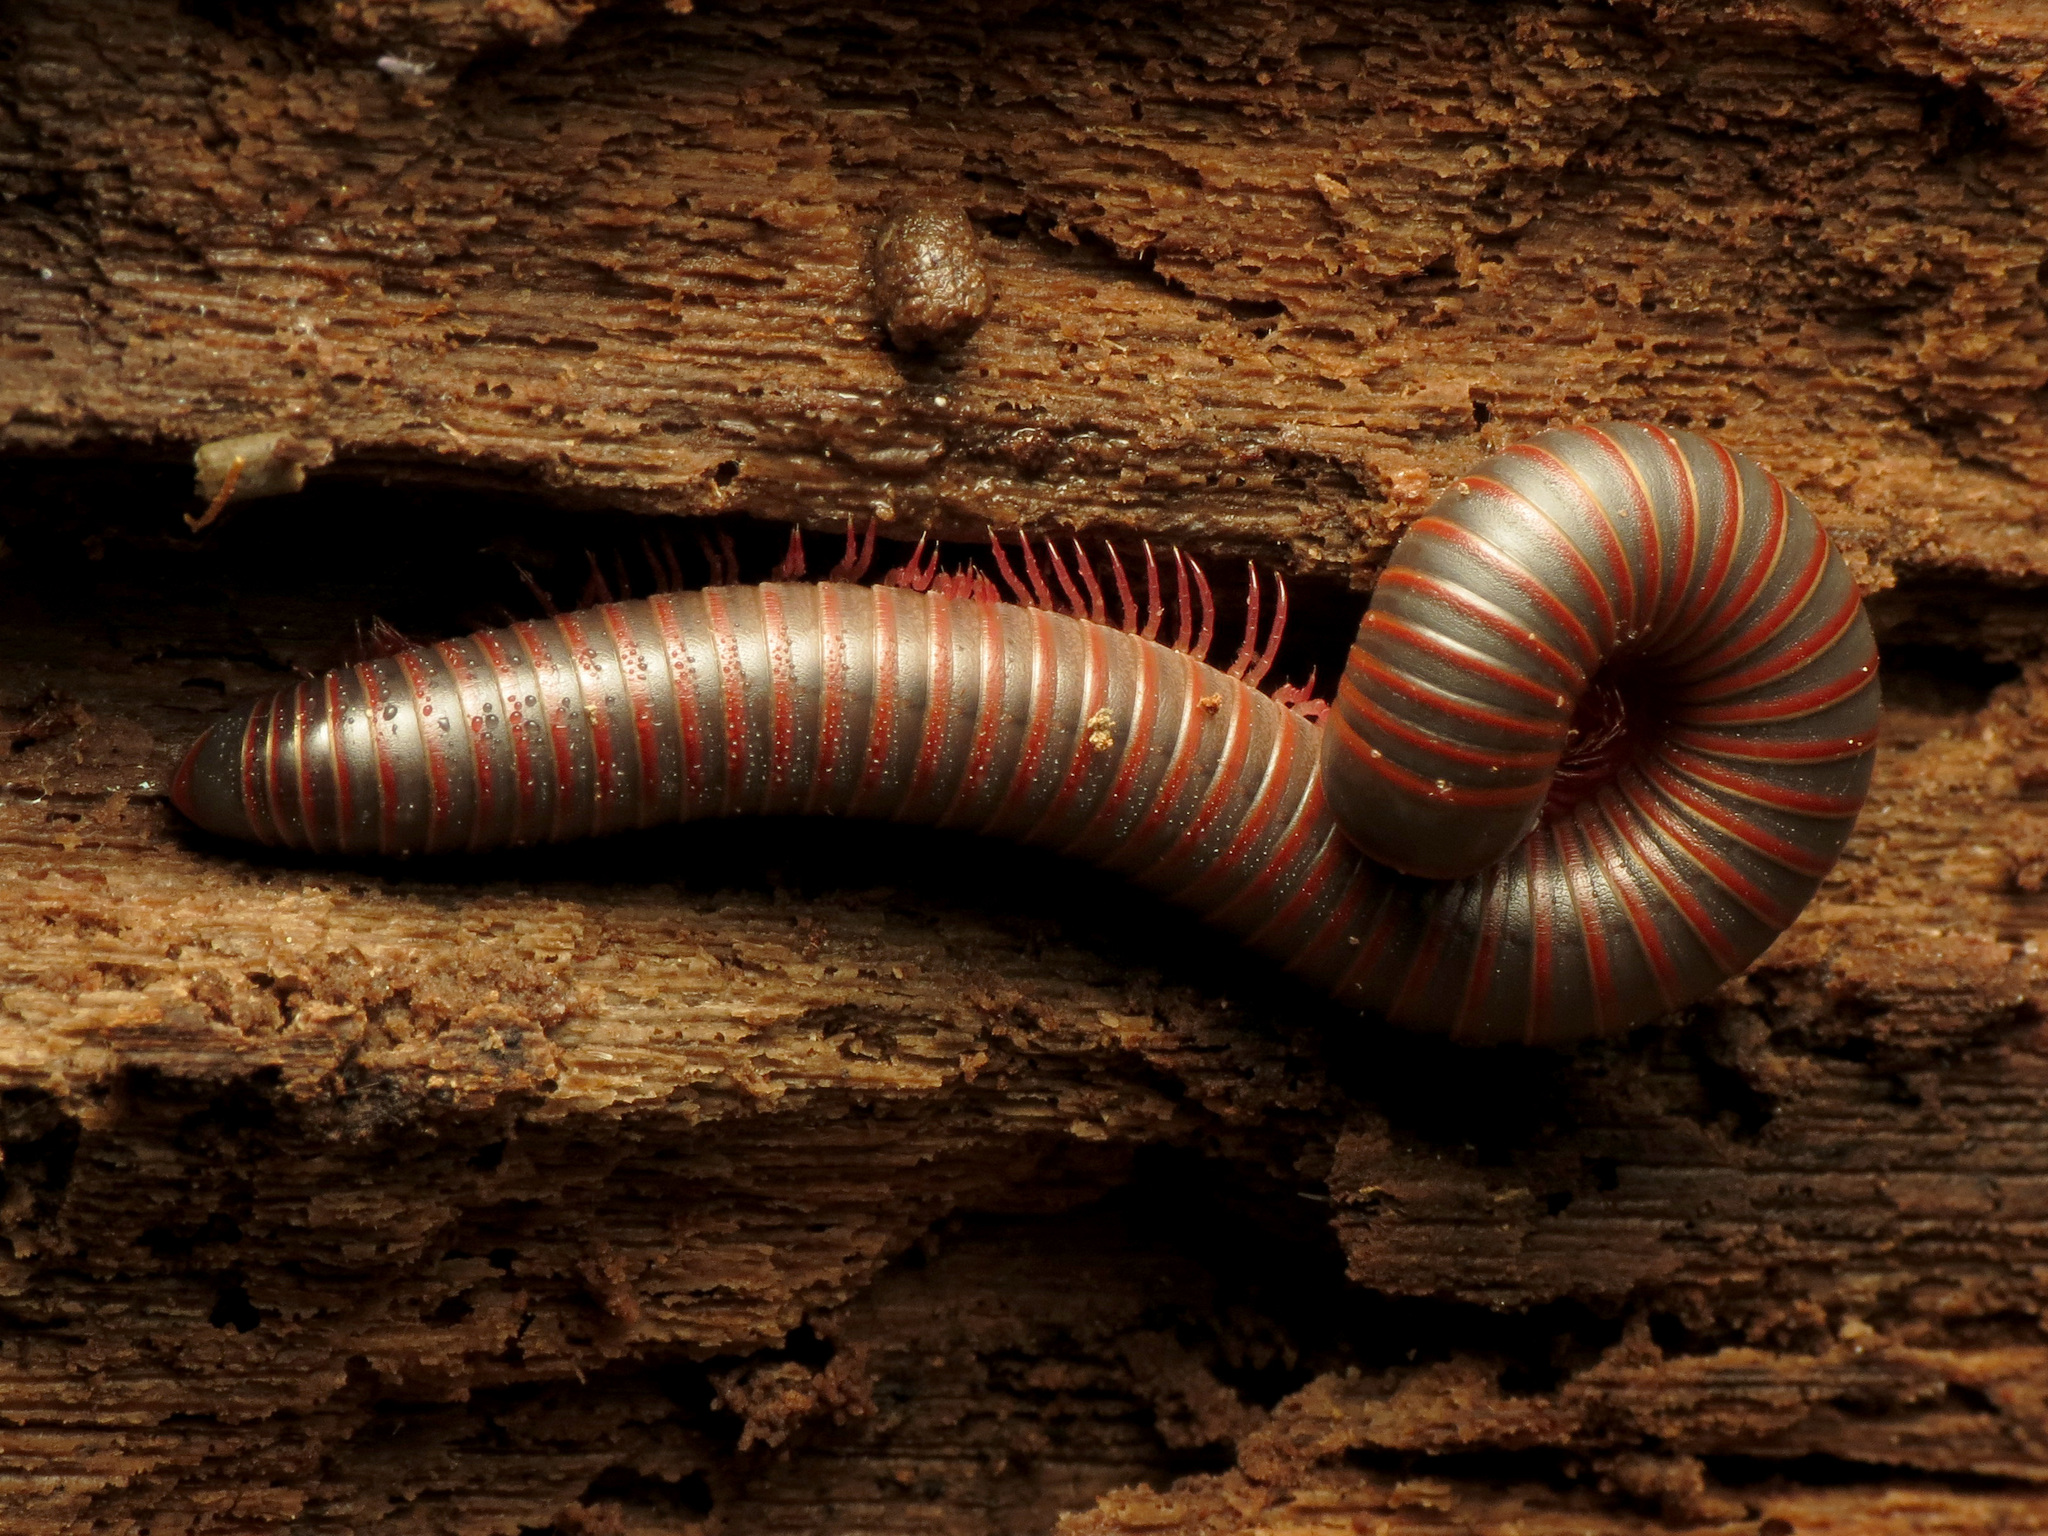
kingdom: Animalia
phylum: Arthropoda
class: Diplopoda
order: Spirobolida
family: Spirobolidae
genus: Narceus
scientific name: Narceus
